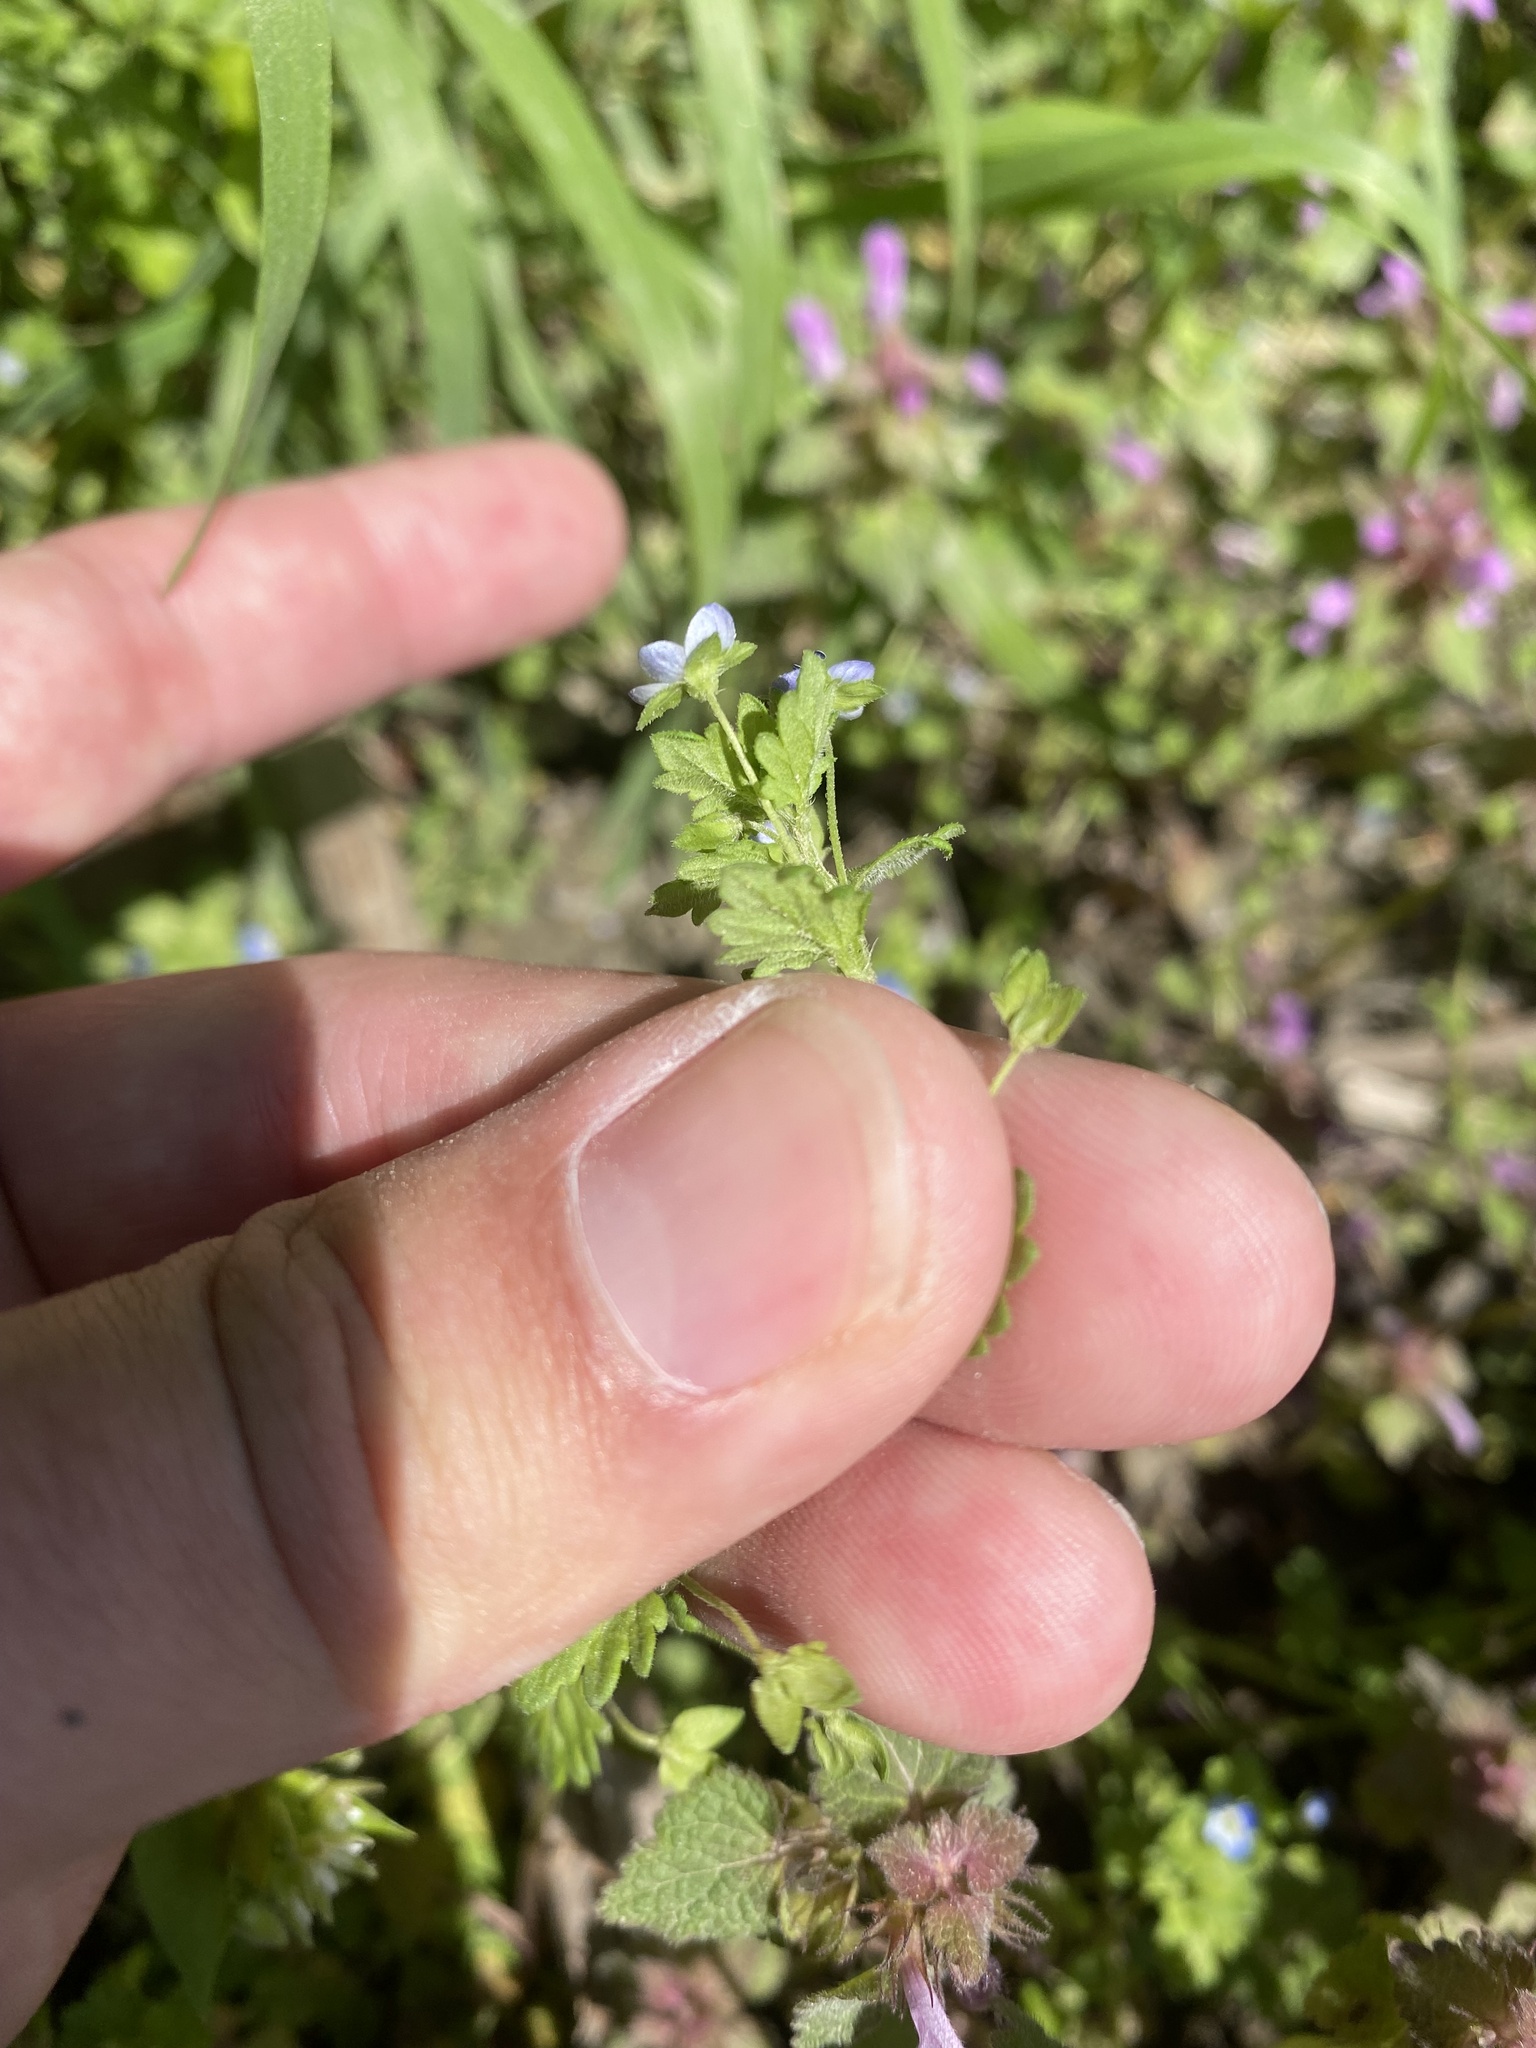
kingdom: Plantae
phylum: Tracheophyta
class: Magnoliopsida
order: Lamiales
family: Plantaginaceae
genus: Veronica
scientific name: Veronica polita
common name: Grey field-speedwell
